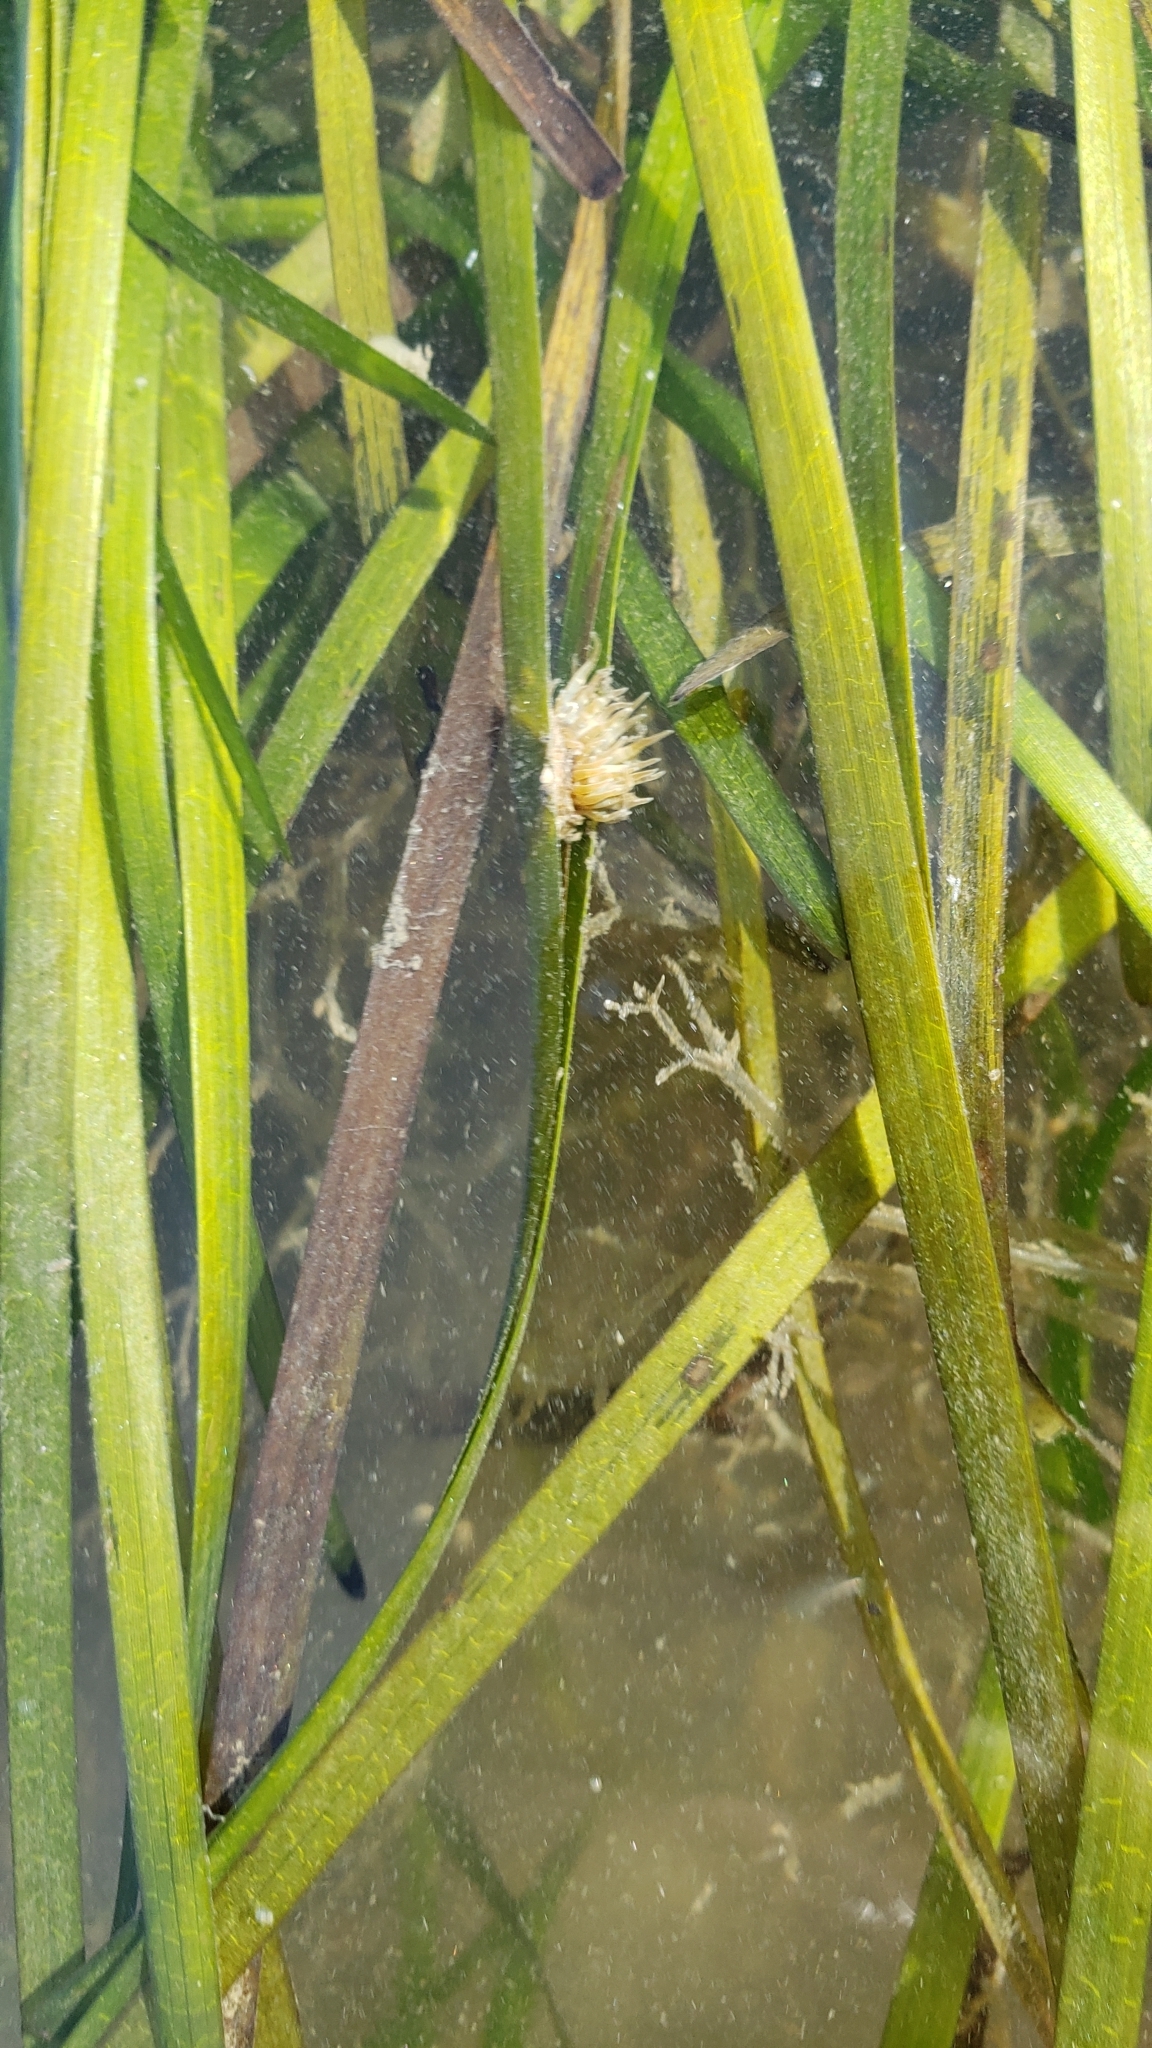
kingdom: Animalia
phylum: Cnidaria
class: Anthozoa
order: Actiniaria
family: Aiptasiidae
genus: Exaiptasia
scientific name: Exaiptasia diaphana
